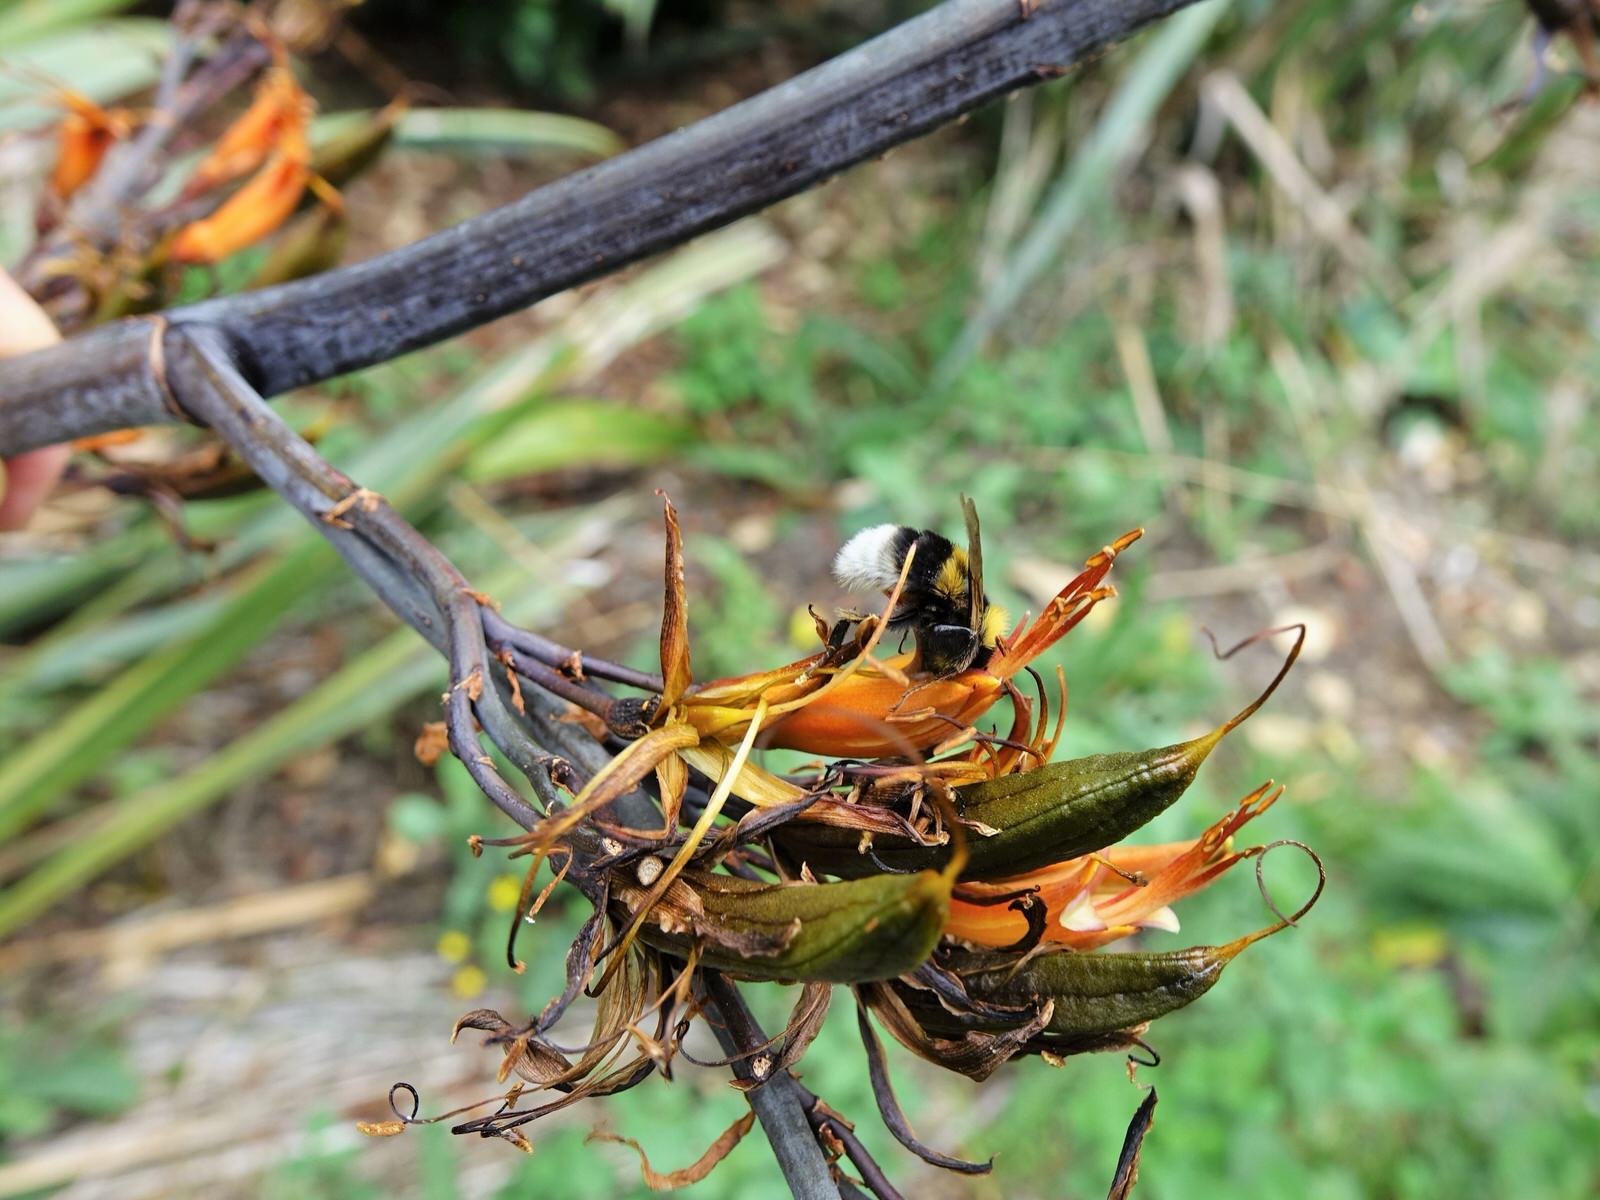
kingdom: Animalia
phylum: Arthropoda
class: Insecta
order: Hymenoptera
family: Apidae
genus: Bombus
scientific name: Bombus ruderatus
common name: Large garden bumblebee
